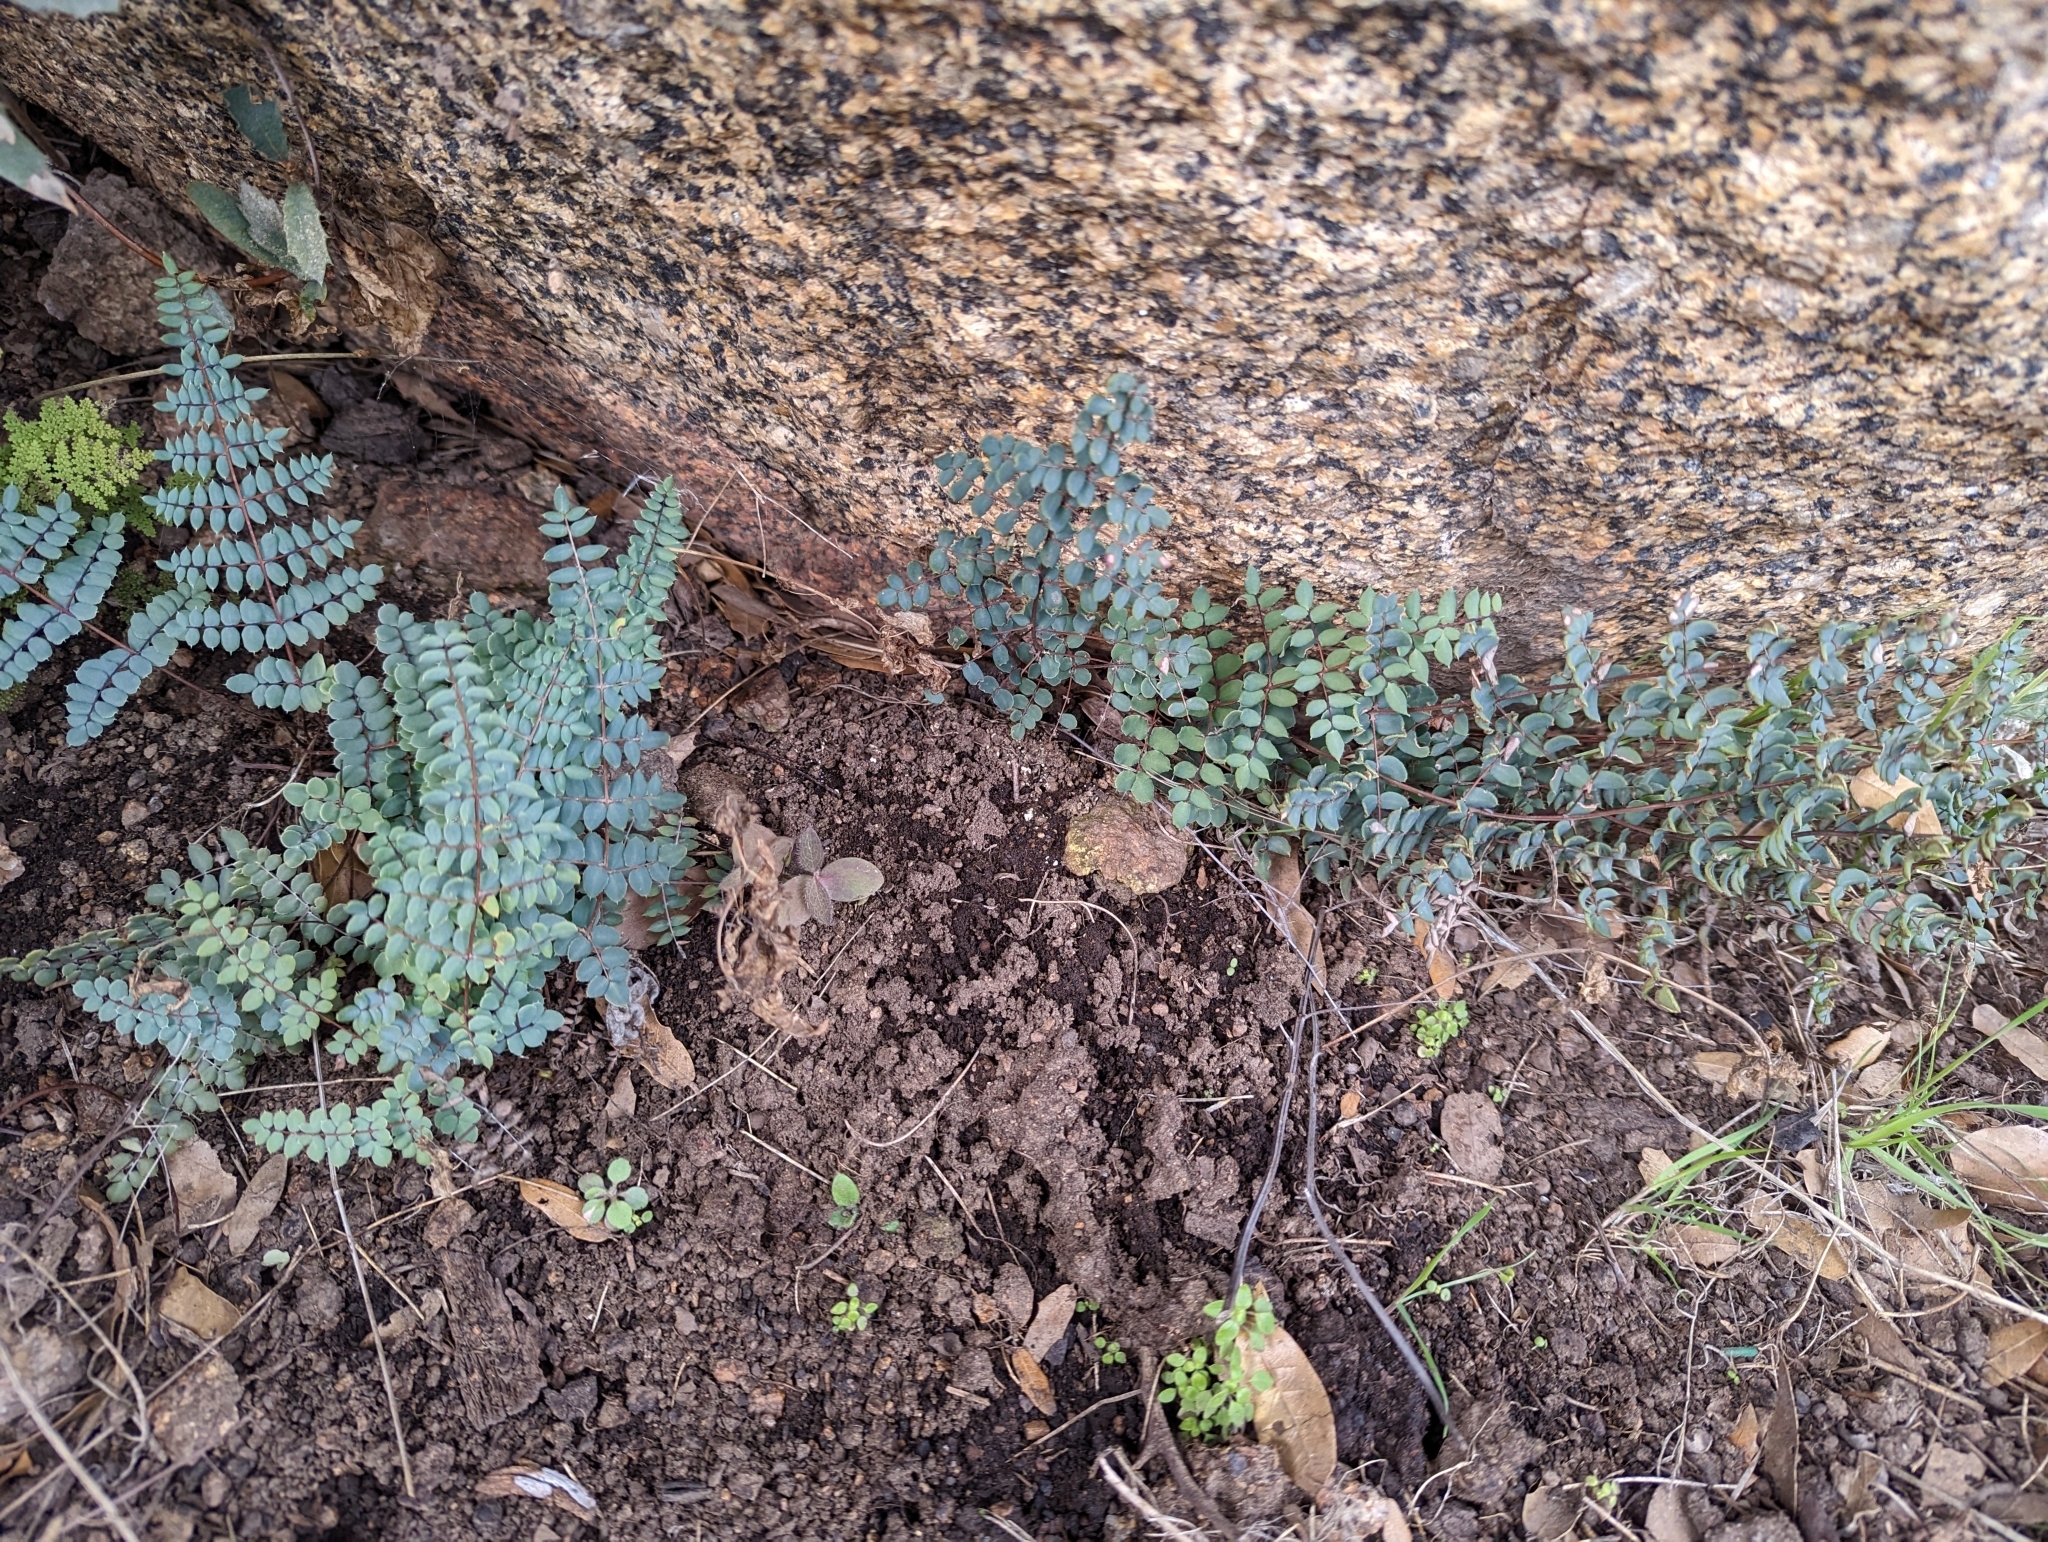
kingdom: Plantae
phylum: Tracheophyta
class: Polypodiopsida
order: Polypodiales
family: Pteridaceae
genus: Pellaea
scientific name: Pellaea truncata
